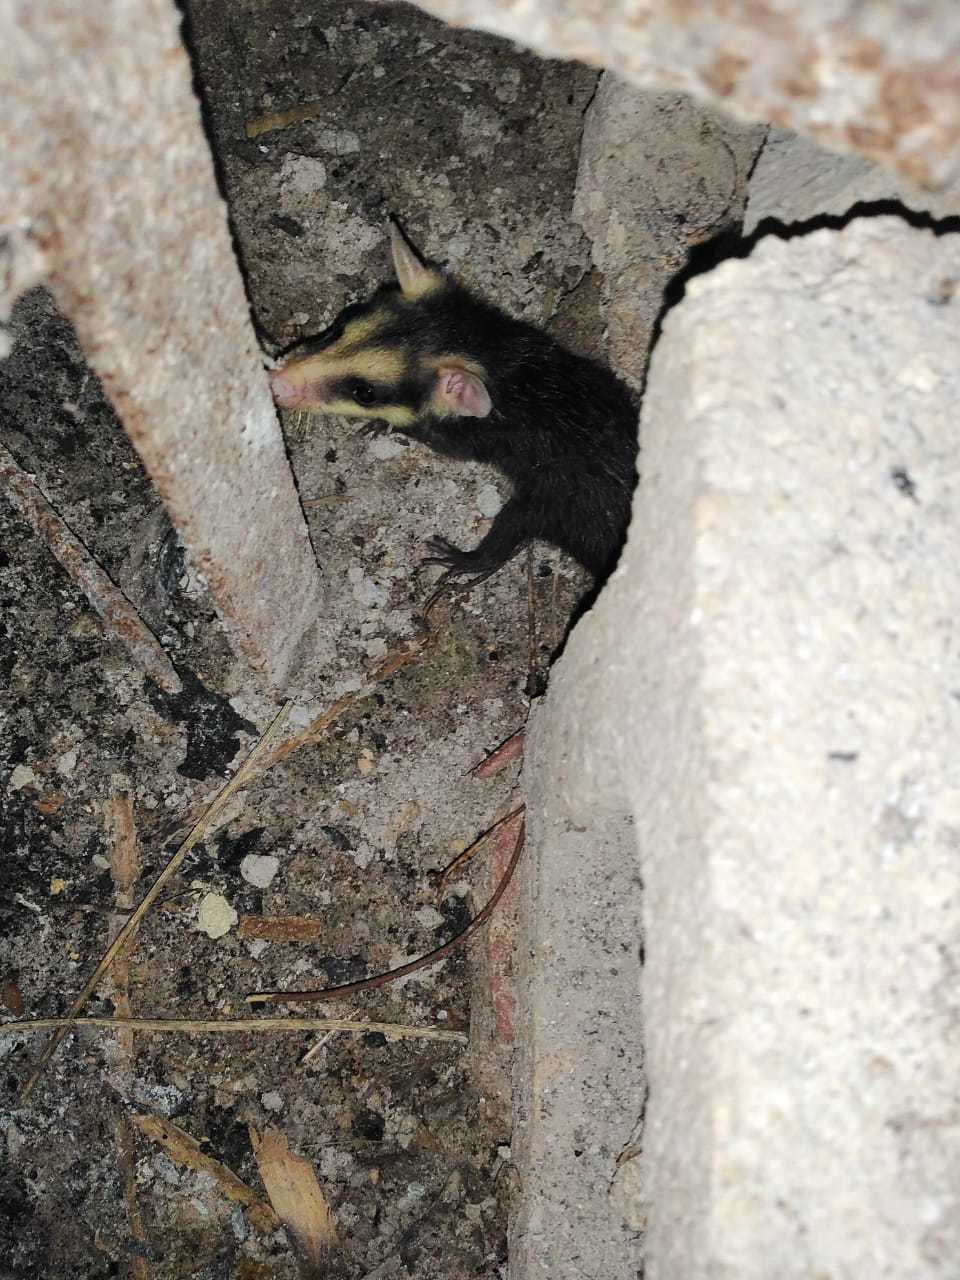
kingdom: Animalia
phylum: Chordata
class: Mammalia
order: Didelphimorphia
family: Didelphidae
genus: Didelphis
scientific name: Didelphis
